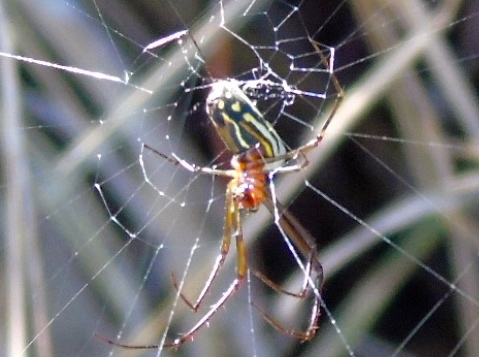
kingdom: Animalia
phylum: Arthropoda
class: Arachnida
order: Araneae
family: Tetragnathidae
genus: Leucauge
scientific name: Leucauge
